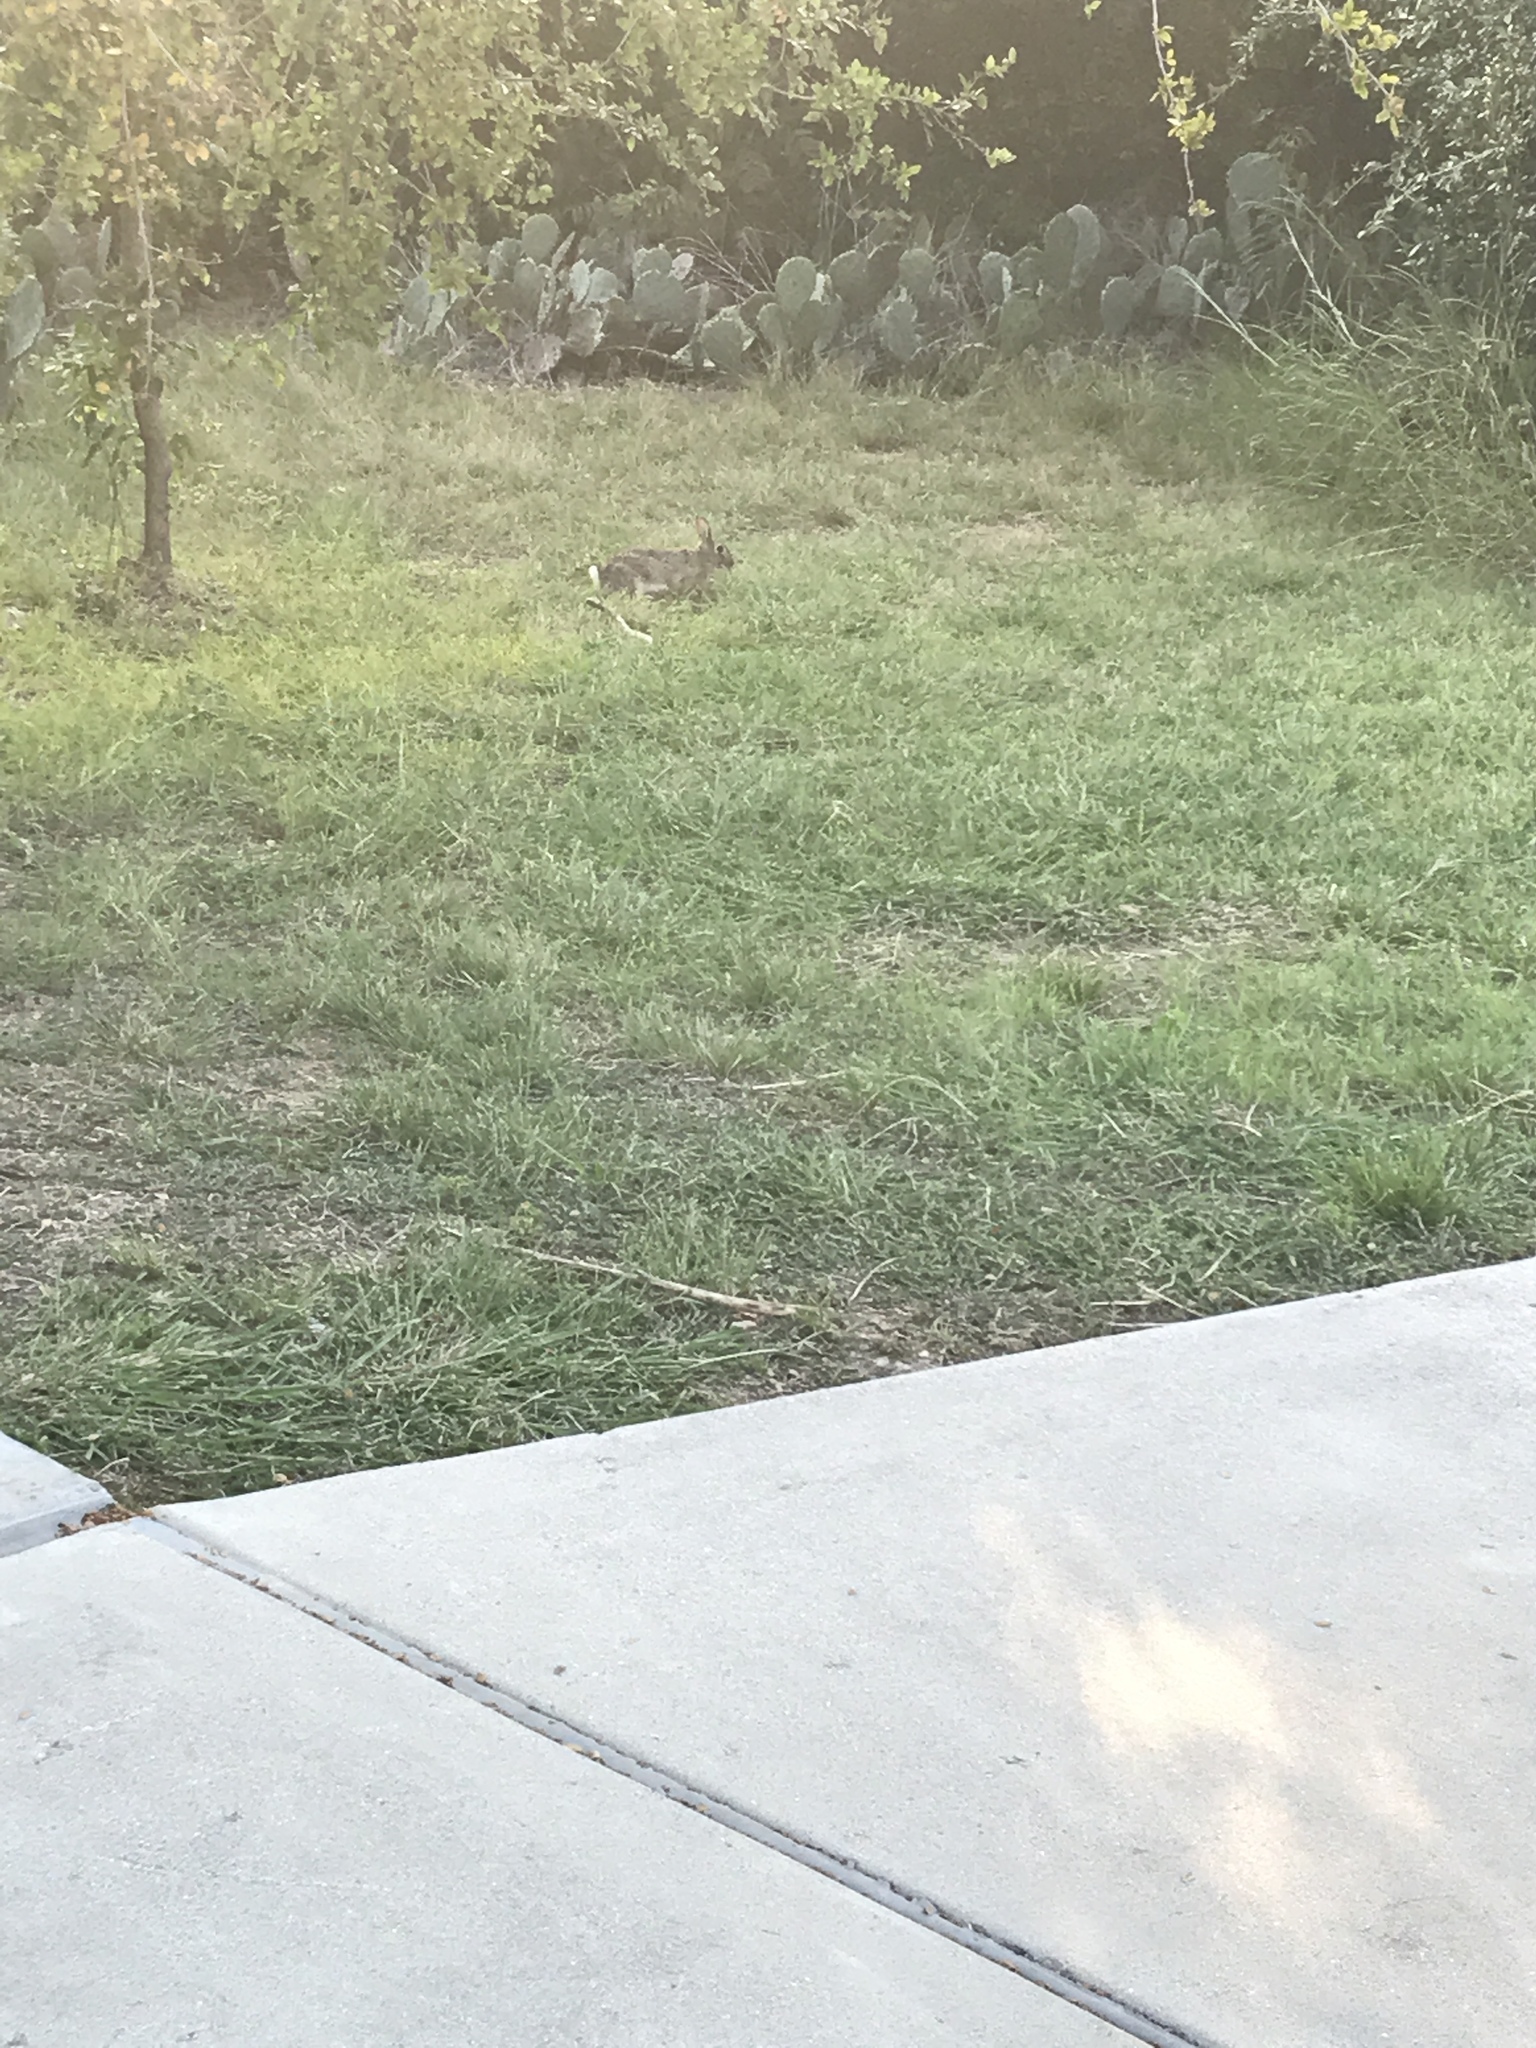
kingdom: Animalia
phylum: Chordata
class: Mammalia
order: Lagomorpha
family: Leporidae
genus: Sylvilagus
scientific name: Sylvilagus floridanus
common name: Eastern cottontail
